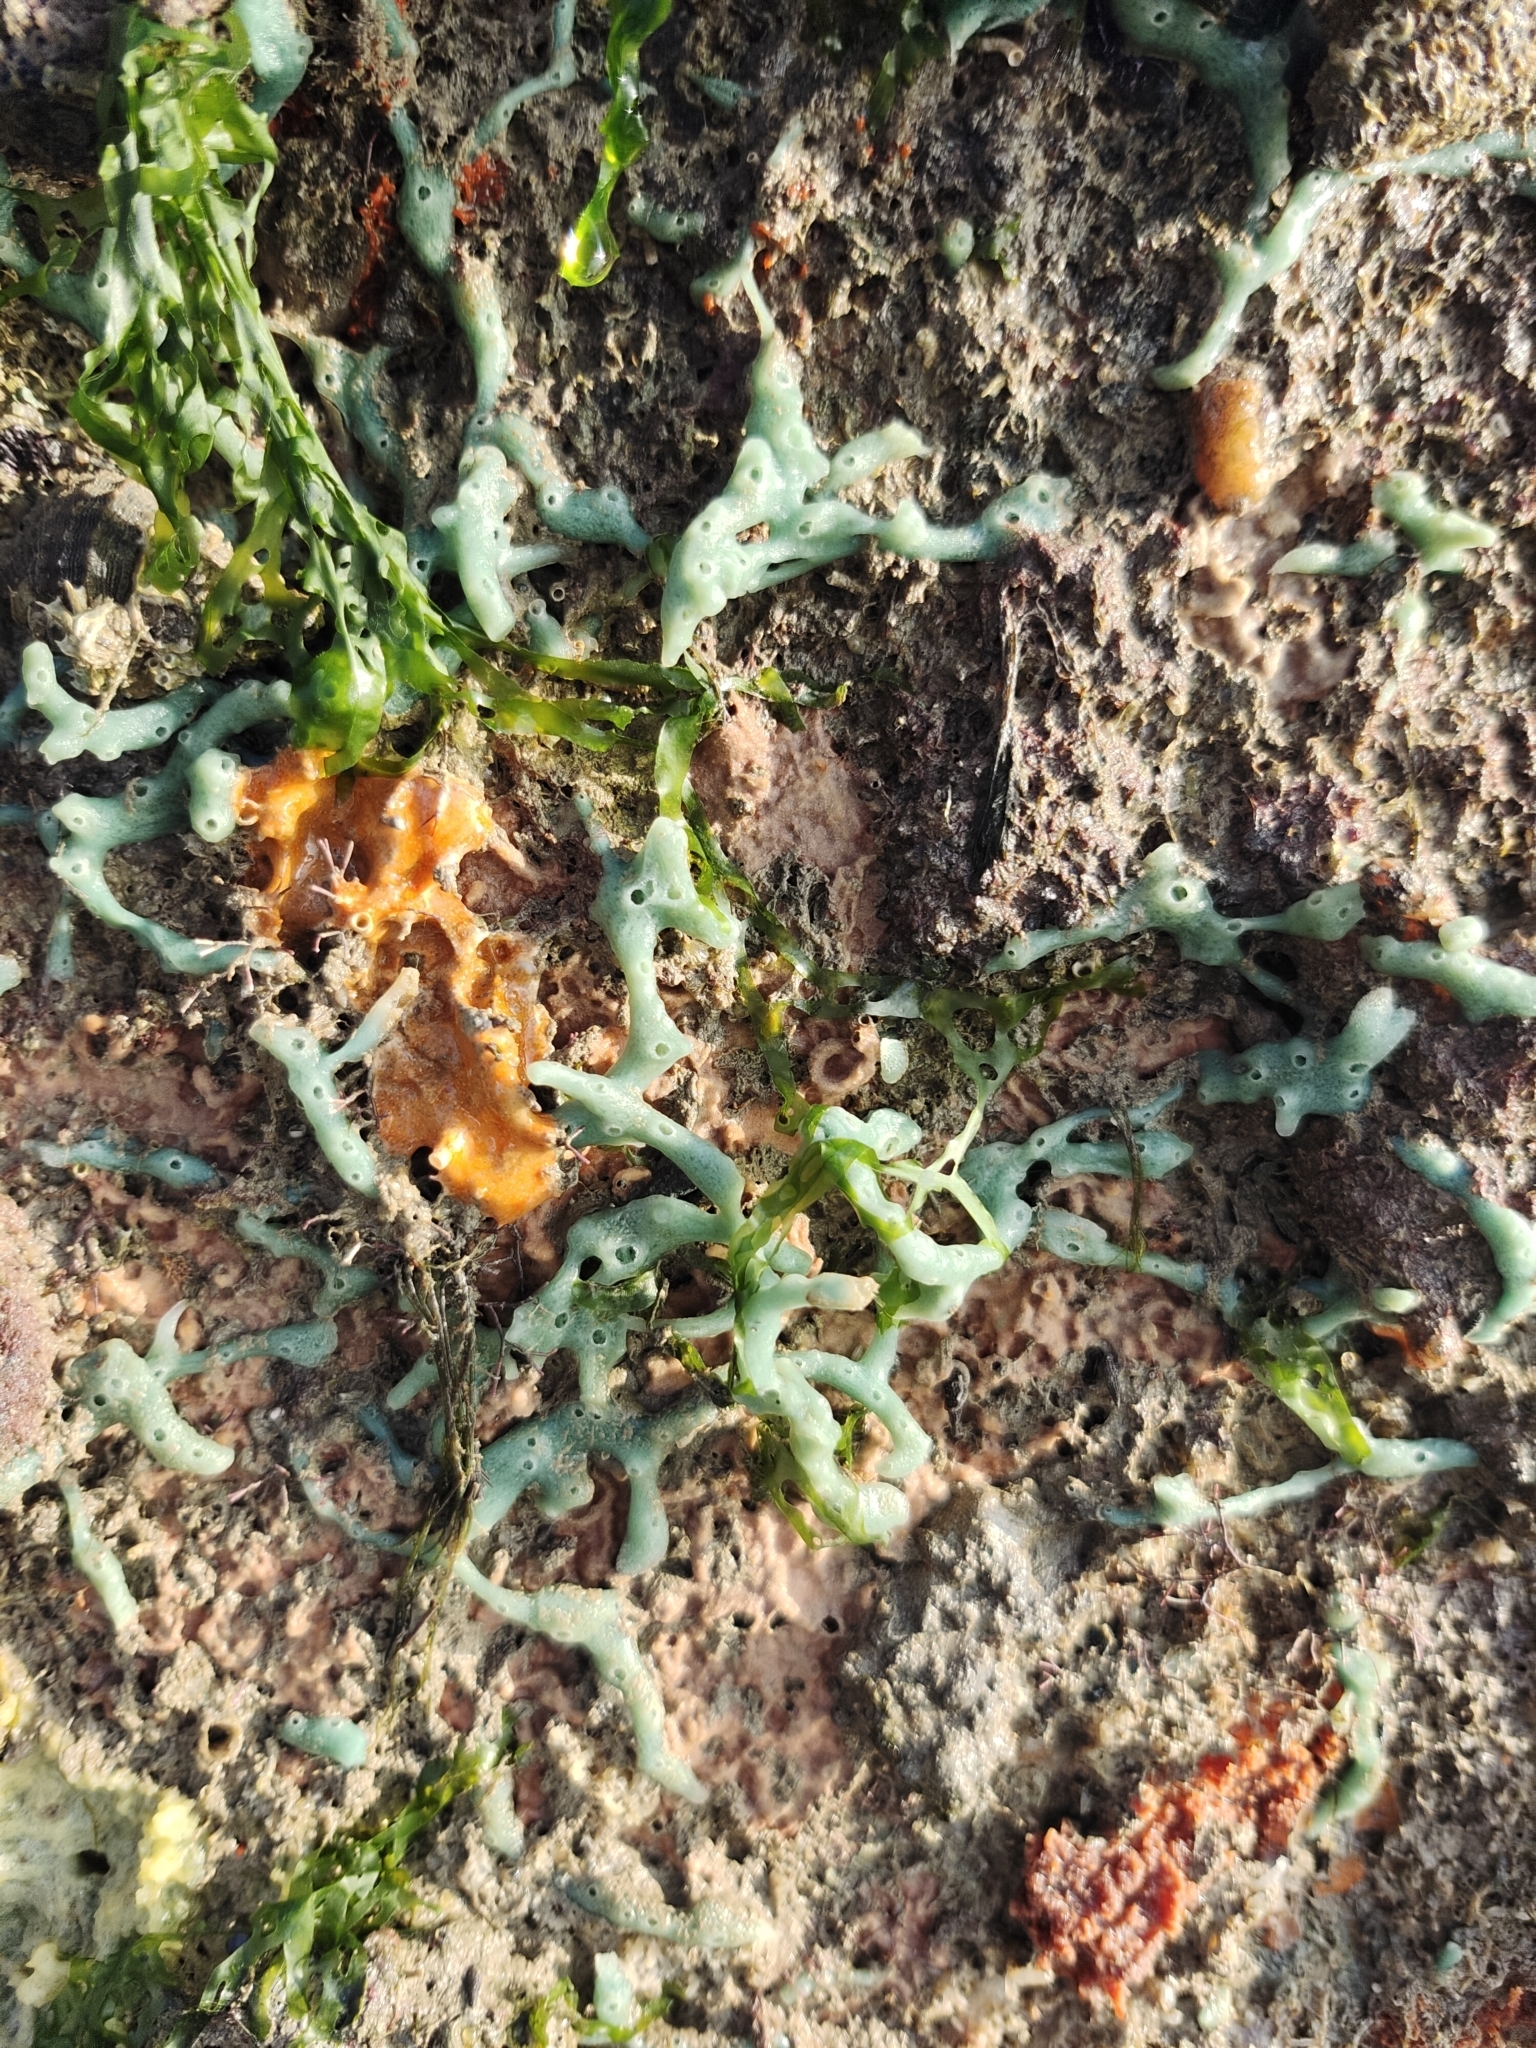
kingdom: Animalia
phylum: Porifera
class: Demospongiae
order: Haplosclerida
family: Chalinidae
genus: Haliclona
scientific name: Haliclona caerulea
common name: Blue caribbean sponge
